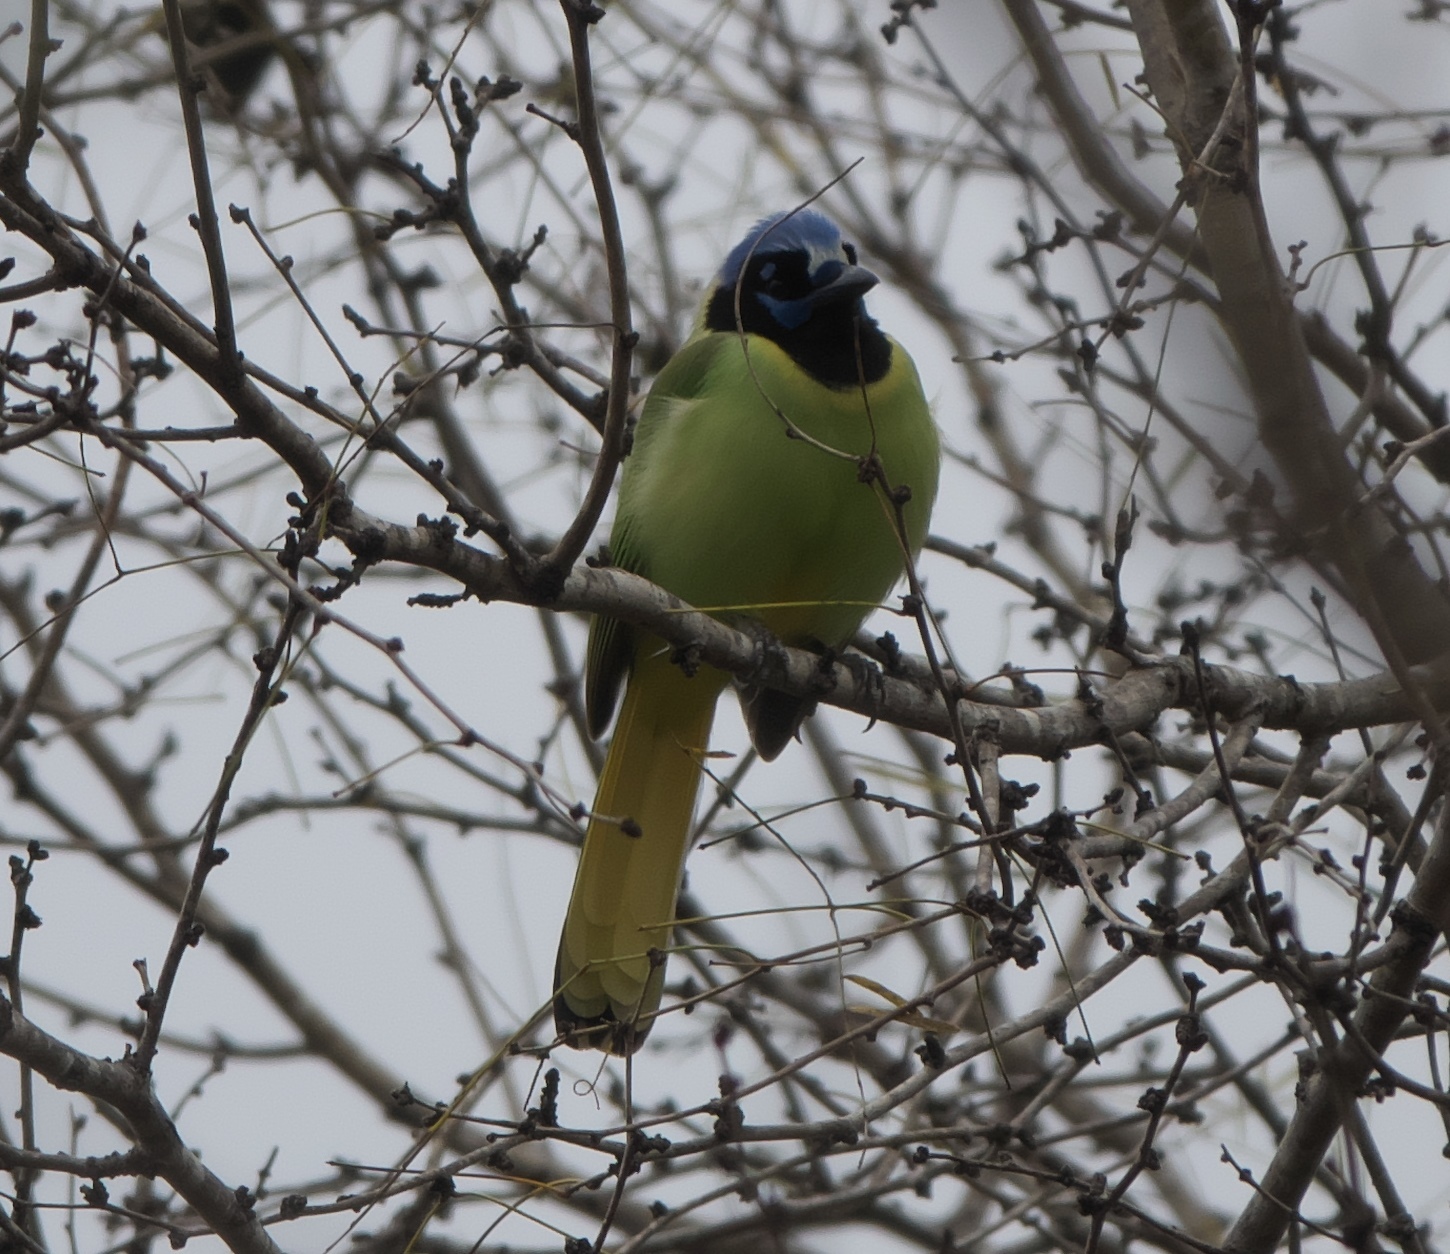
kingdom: Animalia
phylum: Chordata
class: Aves
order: Passeriformes
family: Corvidae
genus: Cyanocorax
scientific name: Cyanocorax yncas
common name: Green jay
